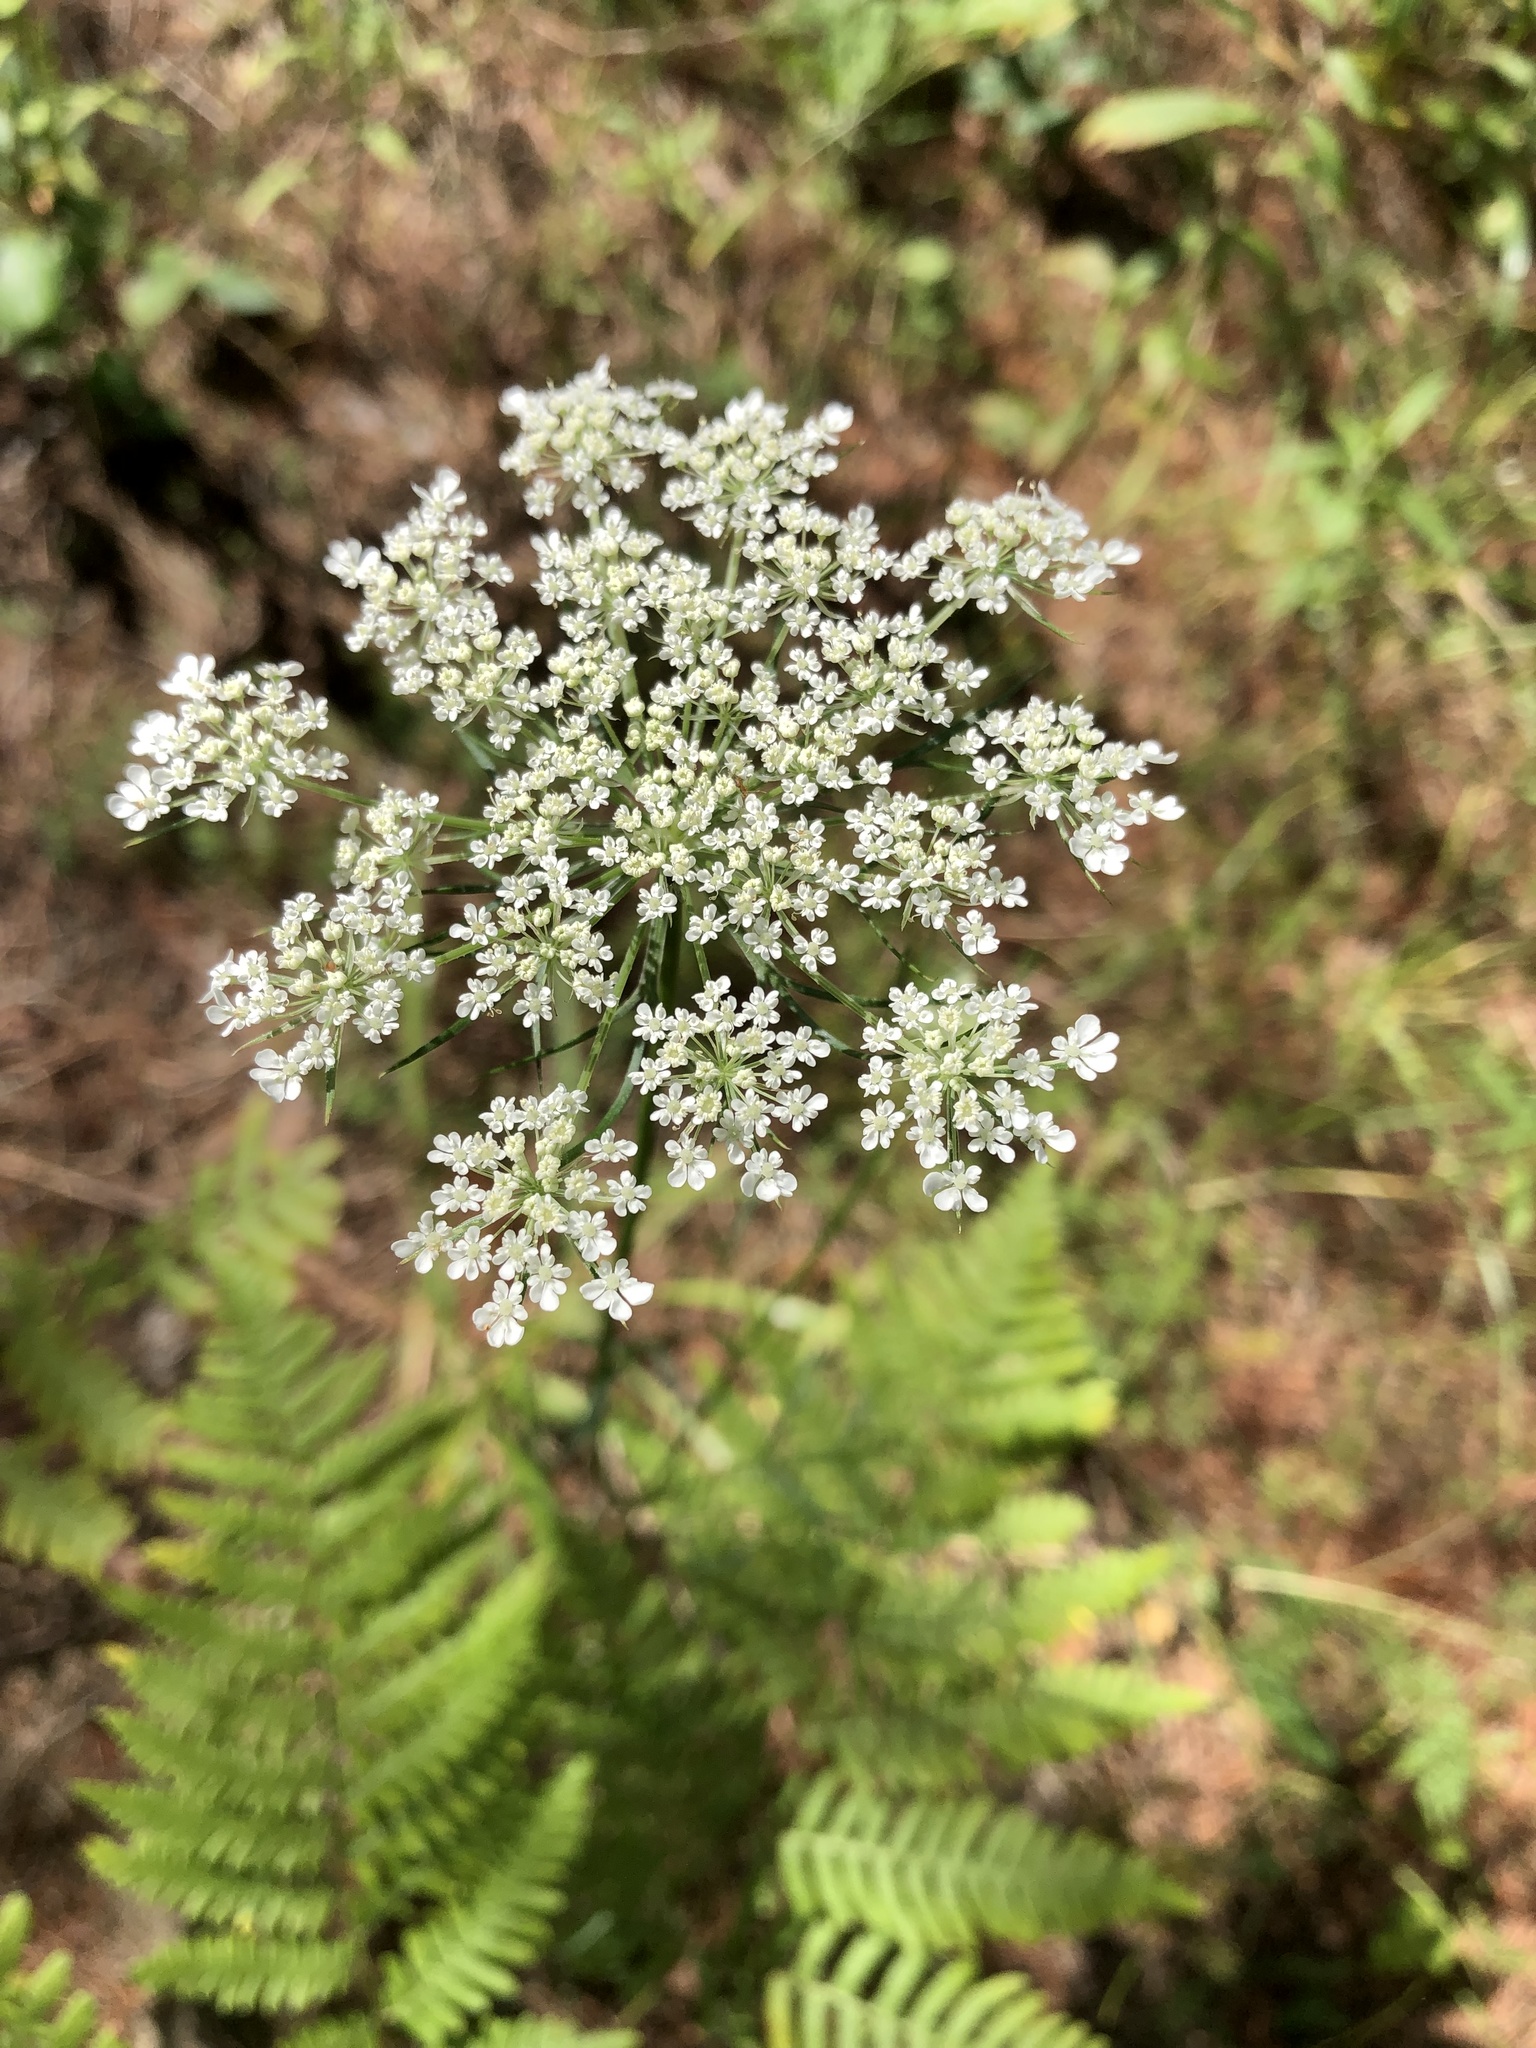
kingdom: Plantae
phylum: Tracheophyta
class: Magnoliopsida
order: Apiales
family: Apiaceae
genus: Daucus
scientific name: Daucus carota
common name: Wild carrot
